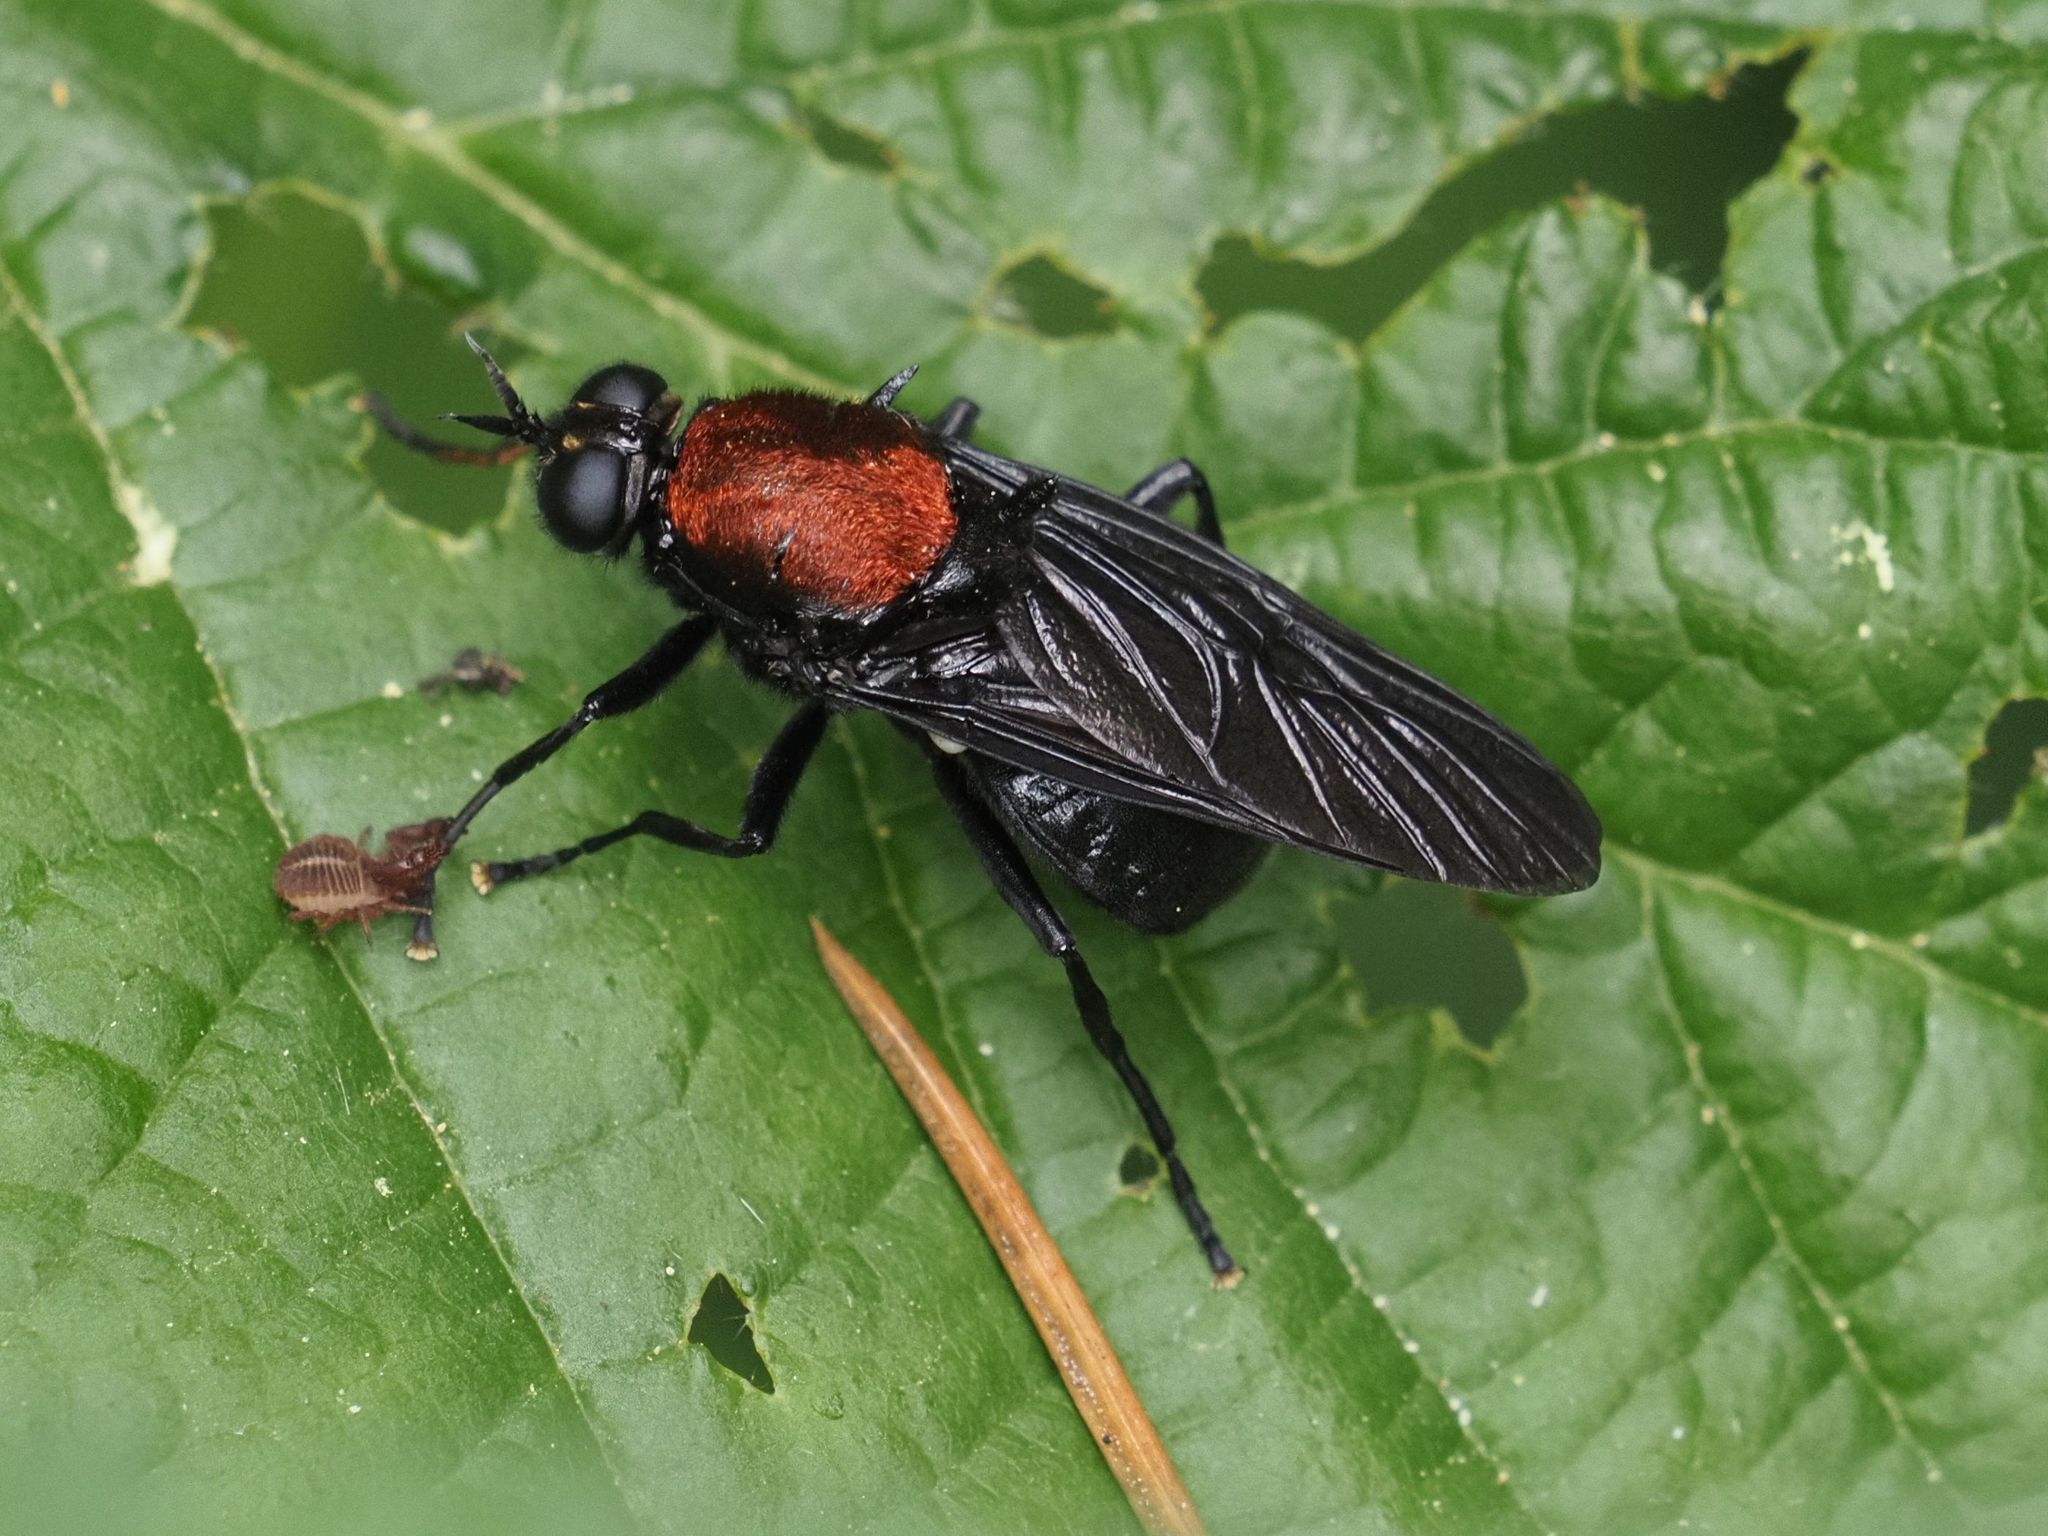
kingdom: Animalia
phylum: Arthropoda
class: Insecta
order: Diptera
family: Stratiomyidae
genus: Clitellaria
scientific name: Clitellaria ephippium
